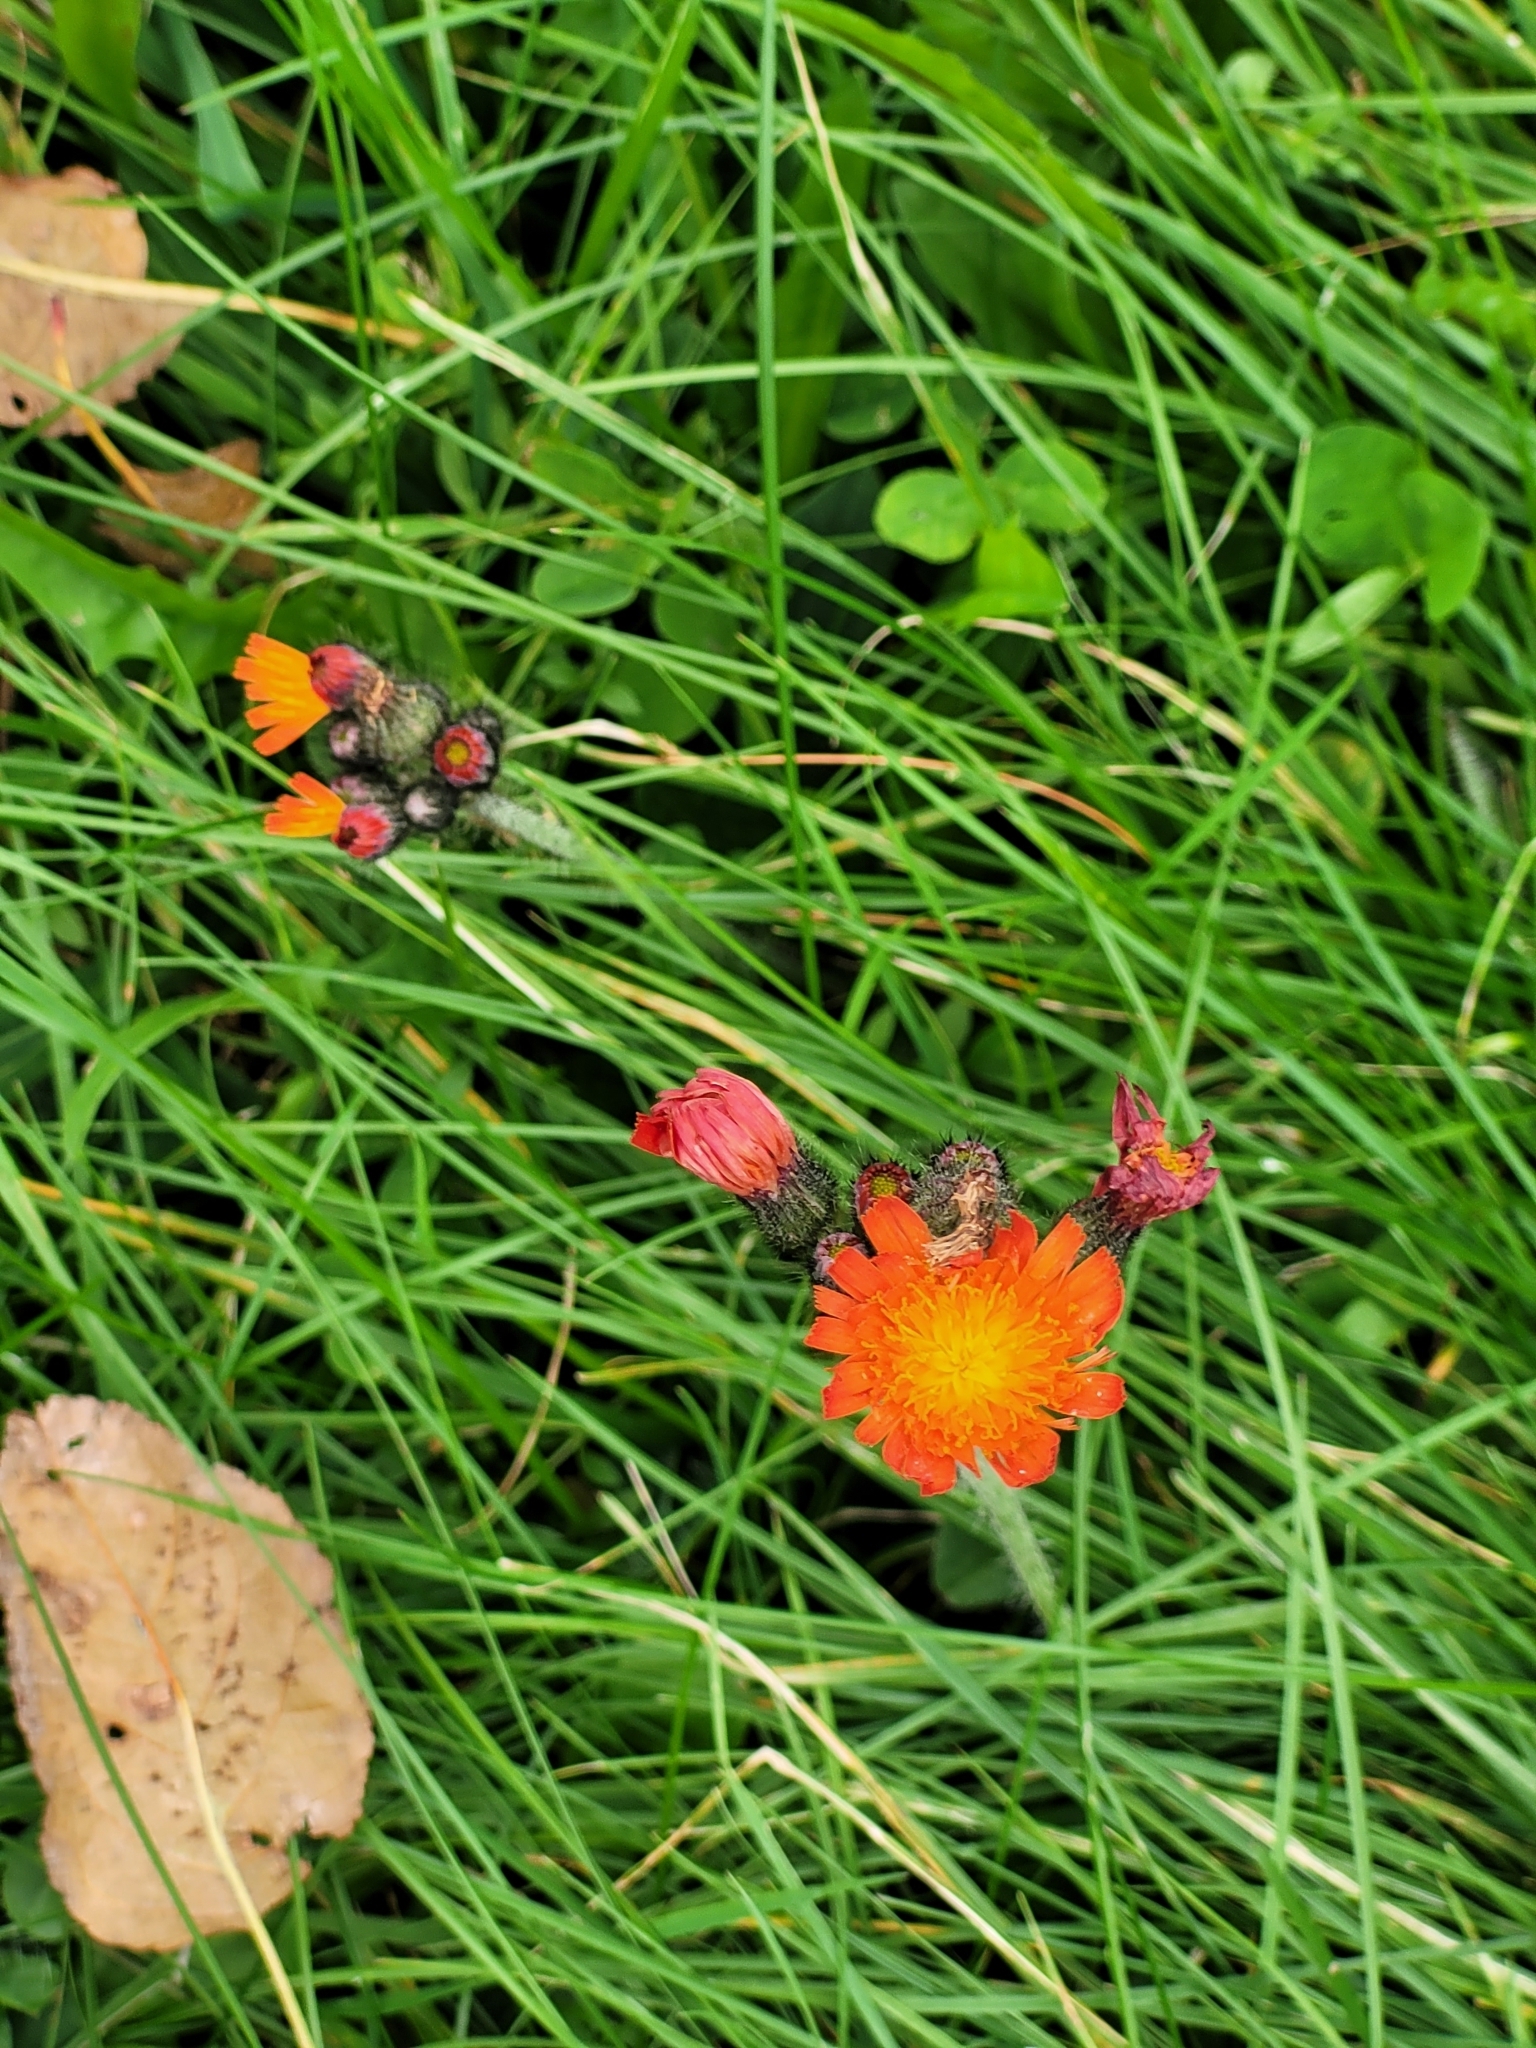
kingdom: Plantae
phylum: Tracheophyta
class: Magnoliopsida
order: Asterales
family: Asteraceae
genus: Pilosella
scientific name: Pilosella aurantiaca
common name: Fox-and-cubs
